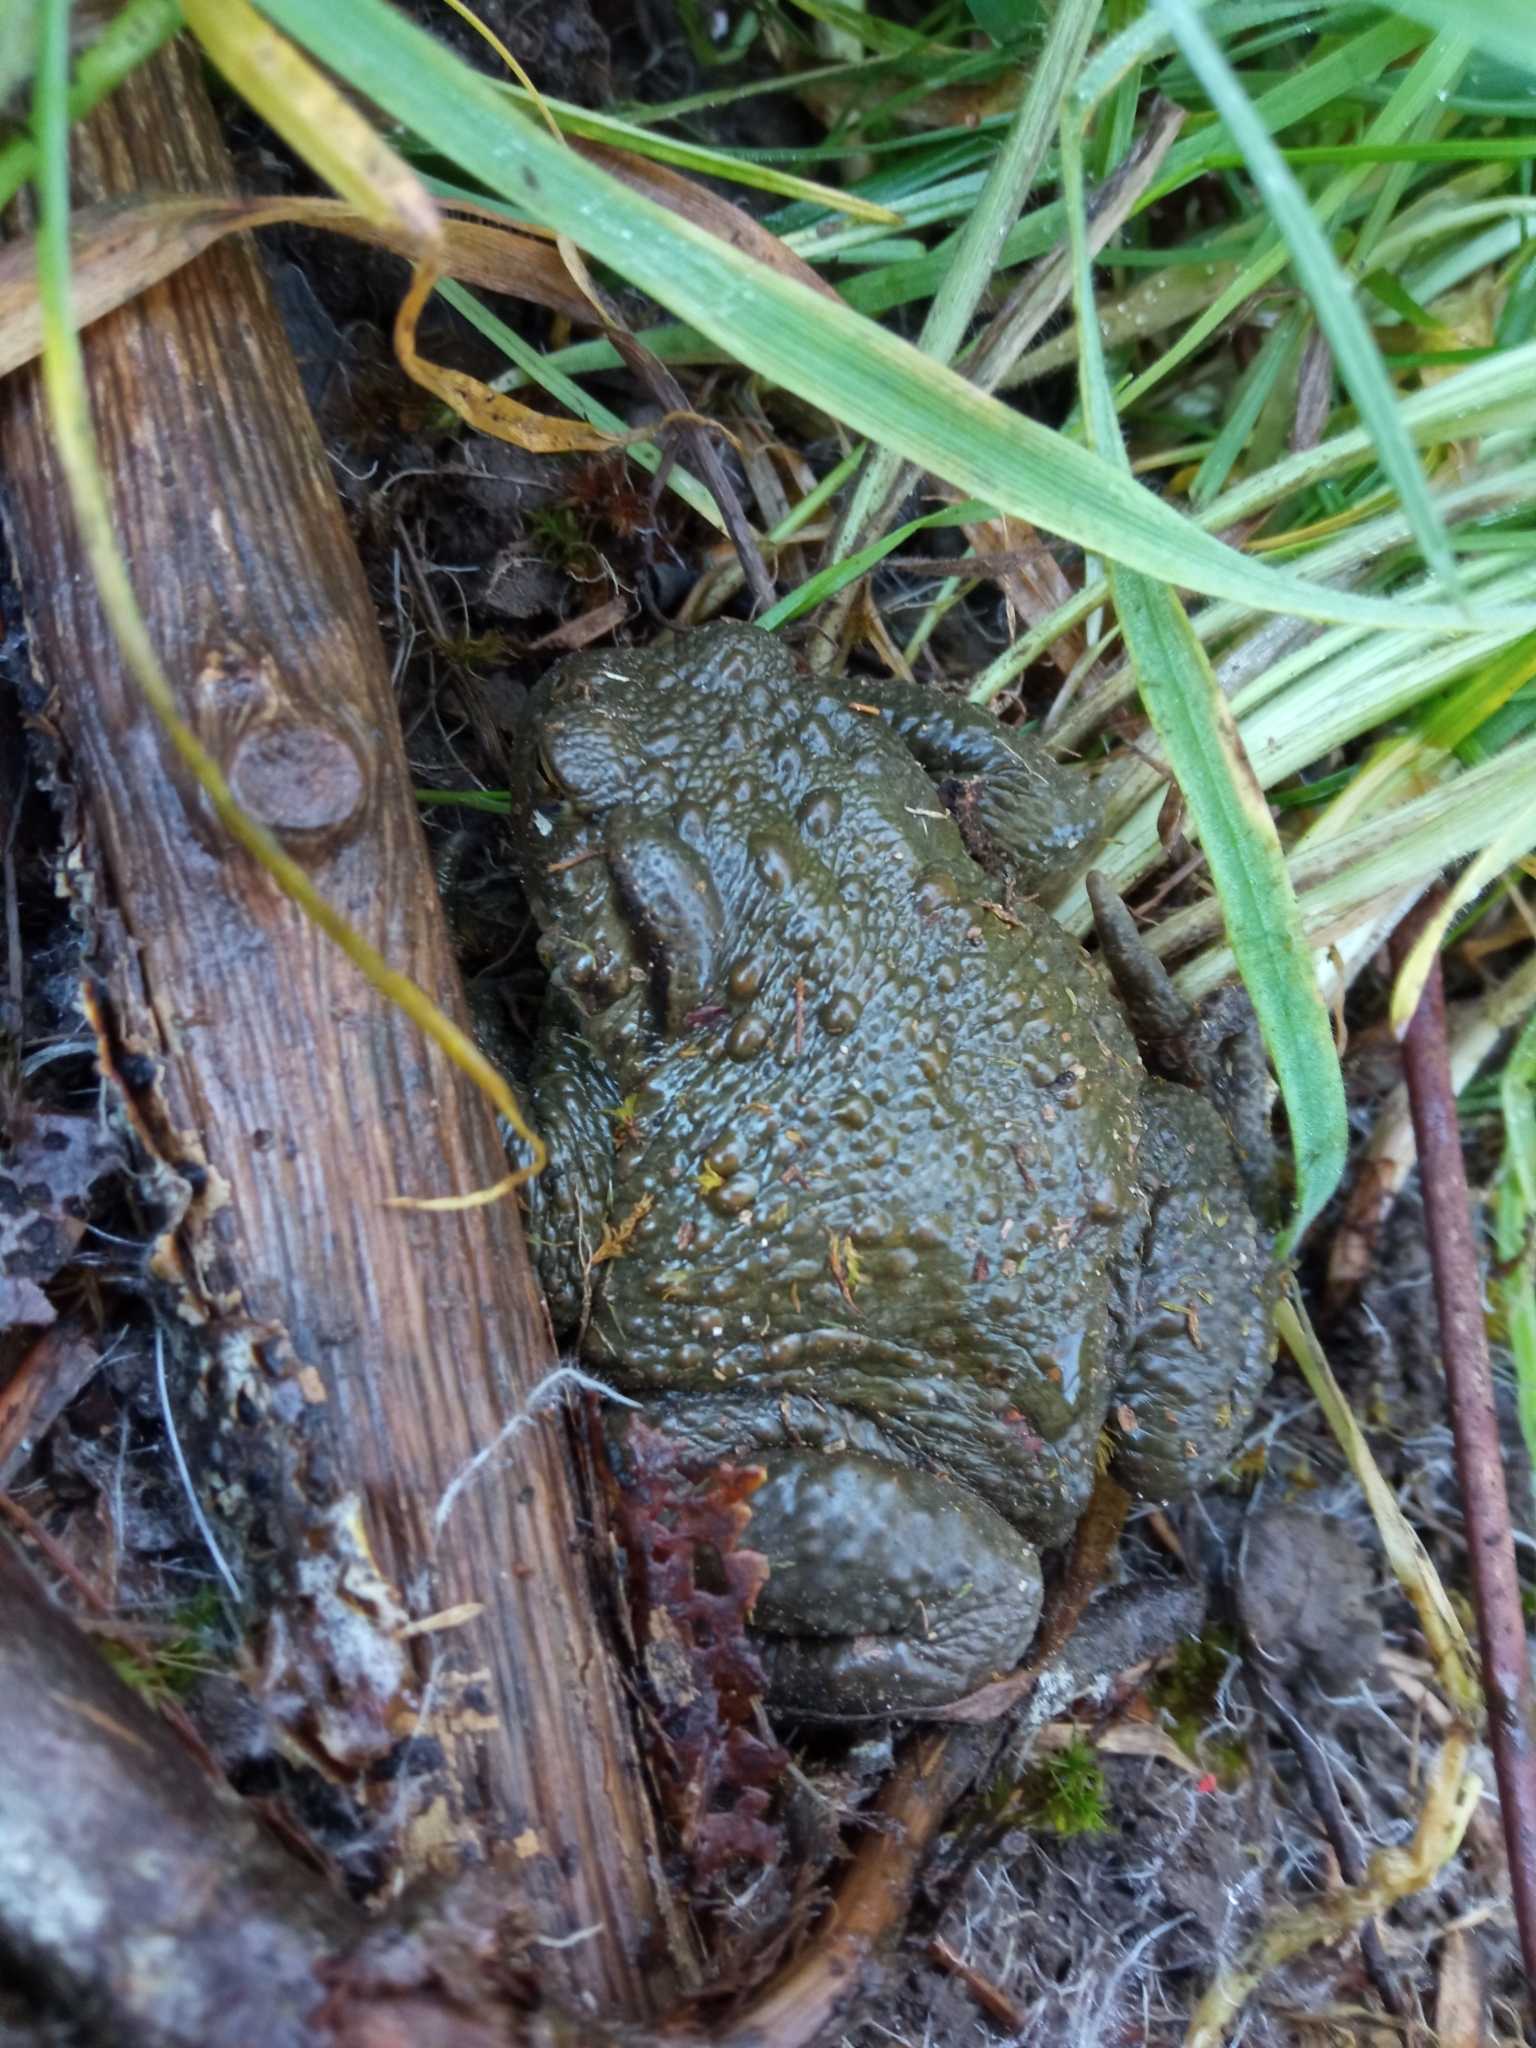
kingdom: Animalia
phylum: Chordata
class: Amphibia
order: Anura
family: Bufonidae
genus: Bufo
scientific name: Bufo bufo
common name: Common toad
